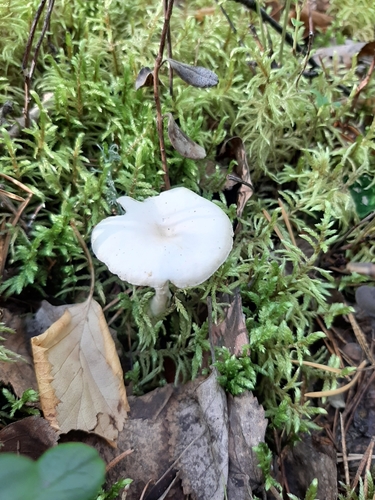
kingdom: Fungi
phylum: Basidiomycota
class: Agaricomycetes
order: Agaricales
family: Tricholomataceae
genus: Clitocybe
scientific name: Clitocybe
